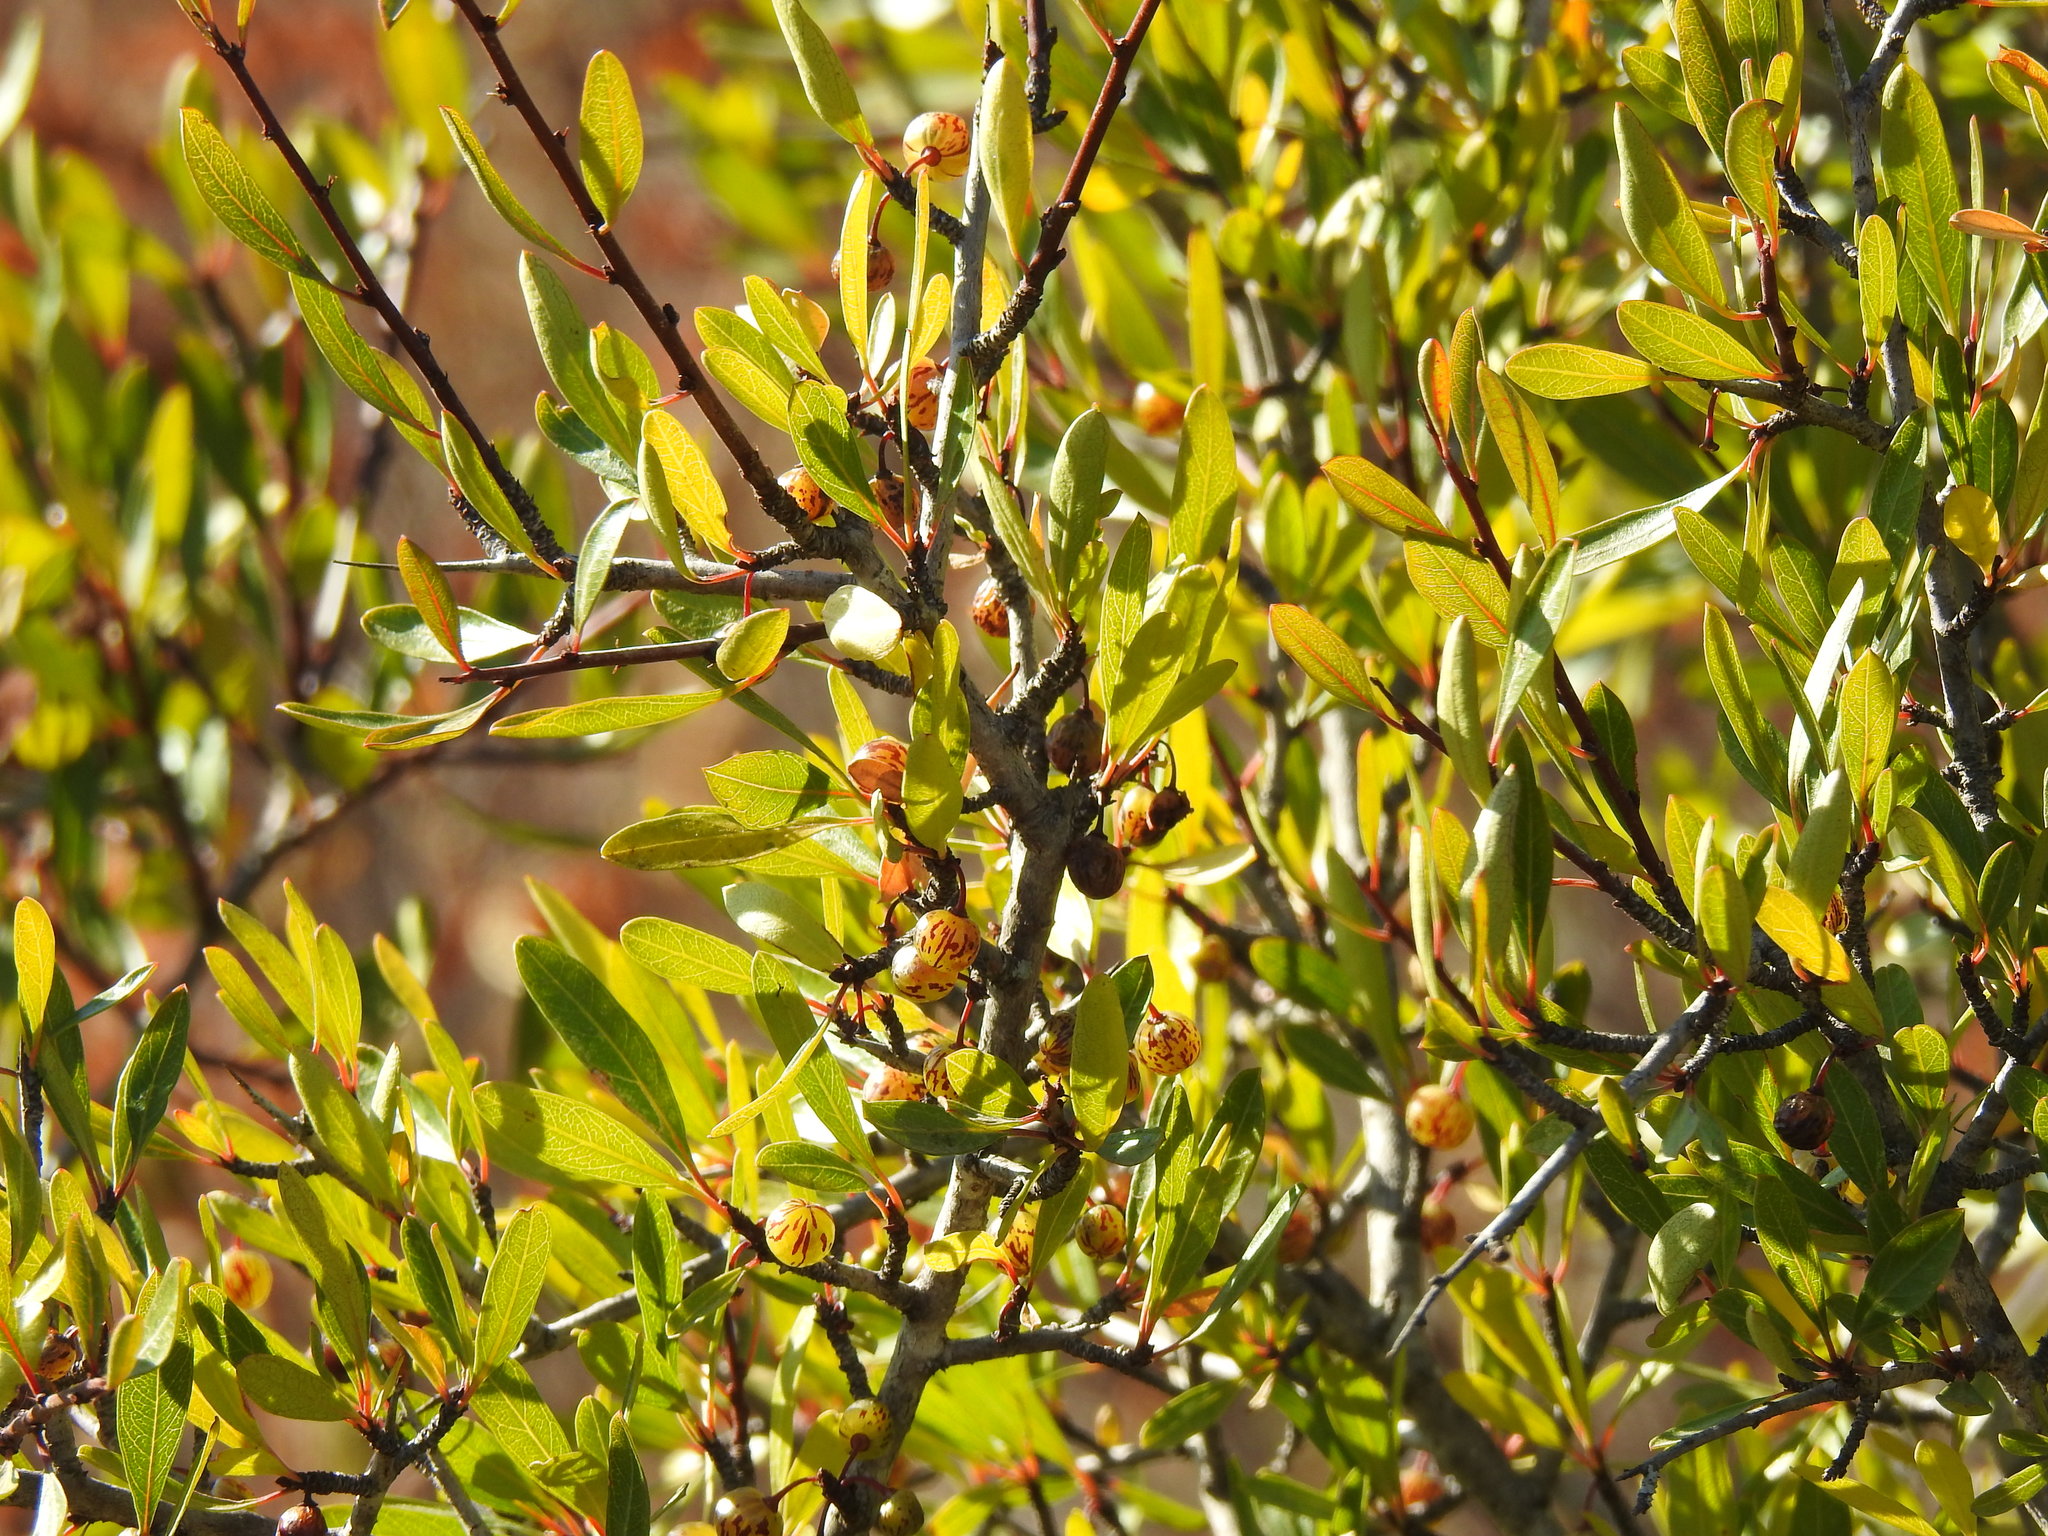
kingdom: Plantae
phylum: Tracheophyta
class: Magnoliopsida
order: Rosales
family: Rhamnaceae
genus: Rhamnus
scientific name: Rhamnus oleoides
